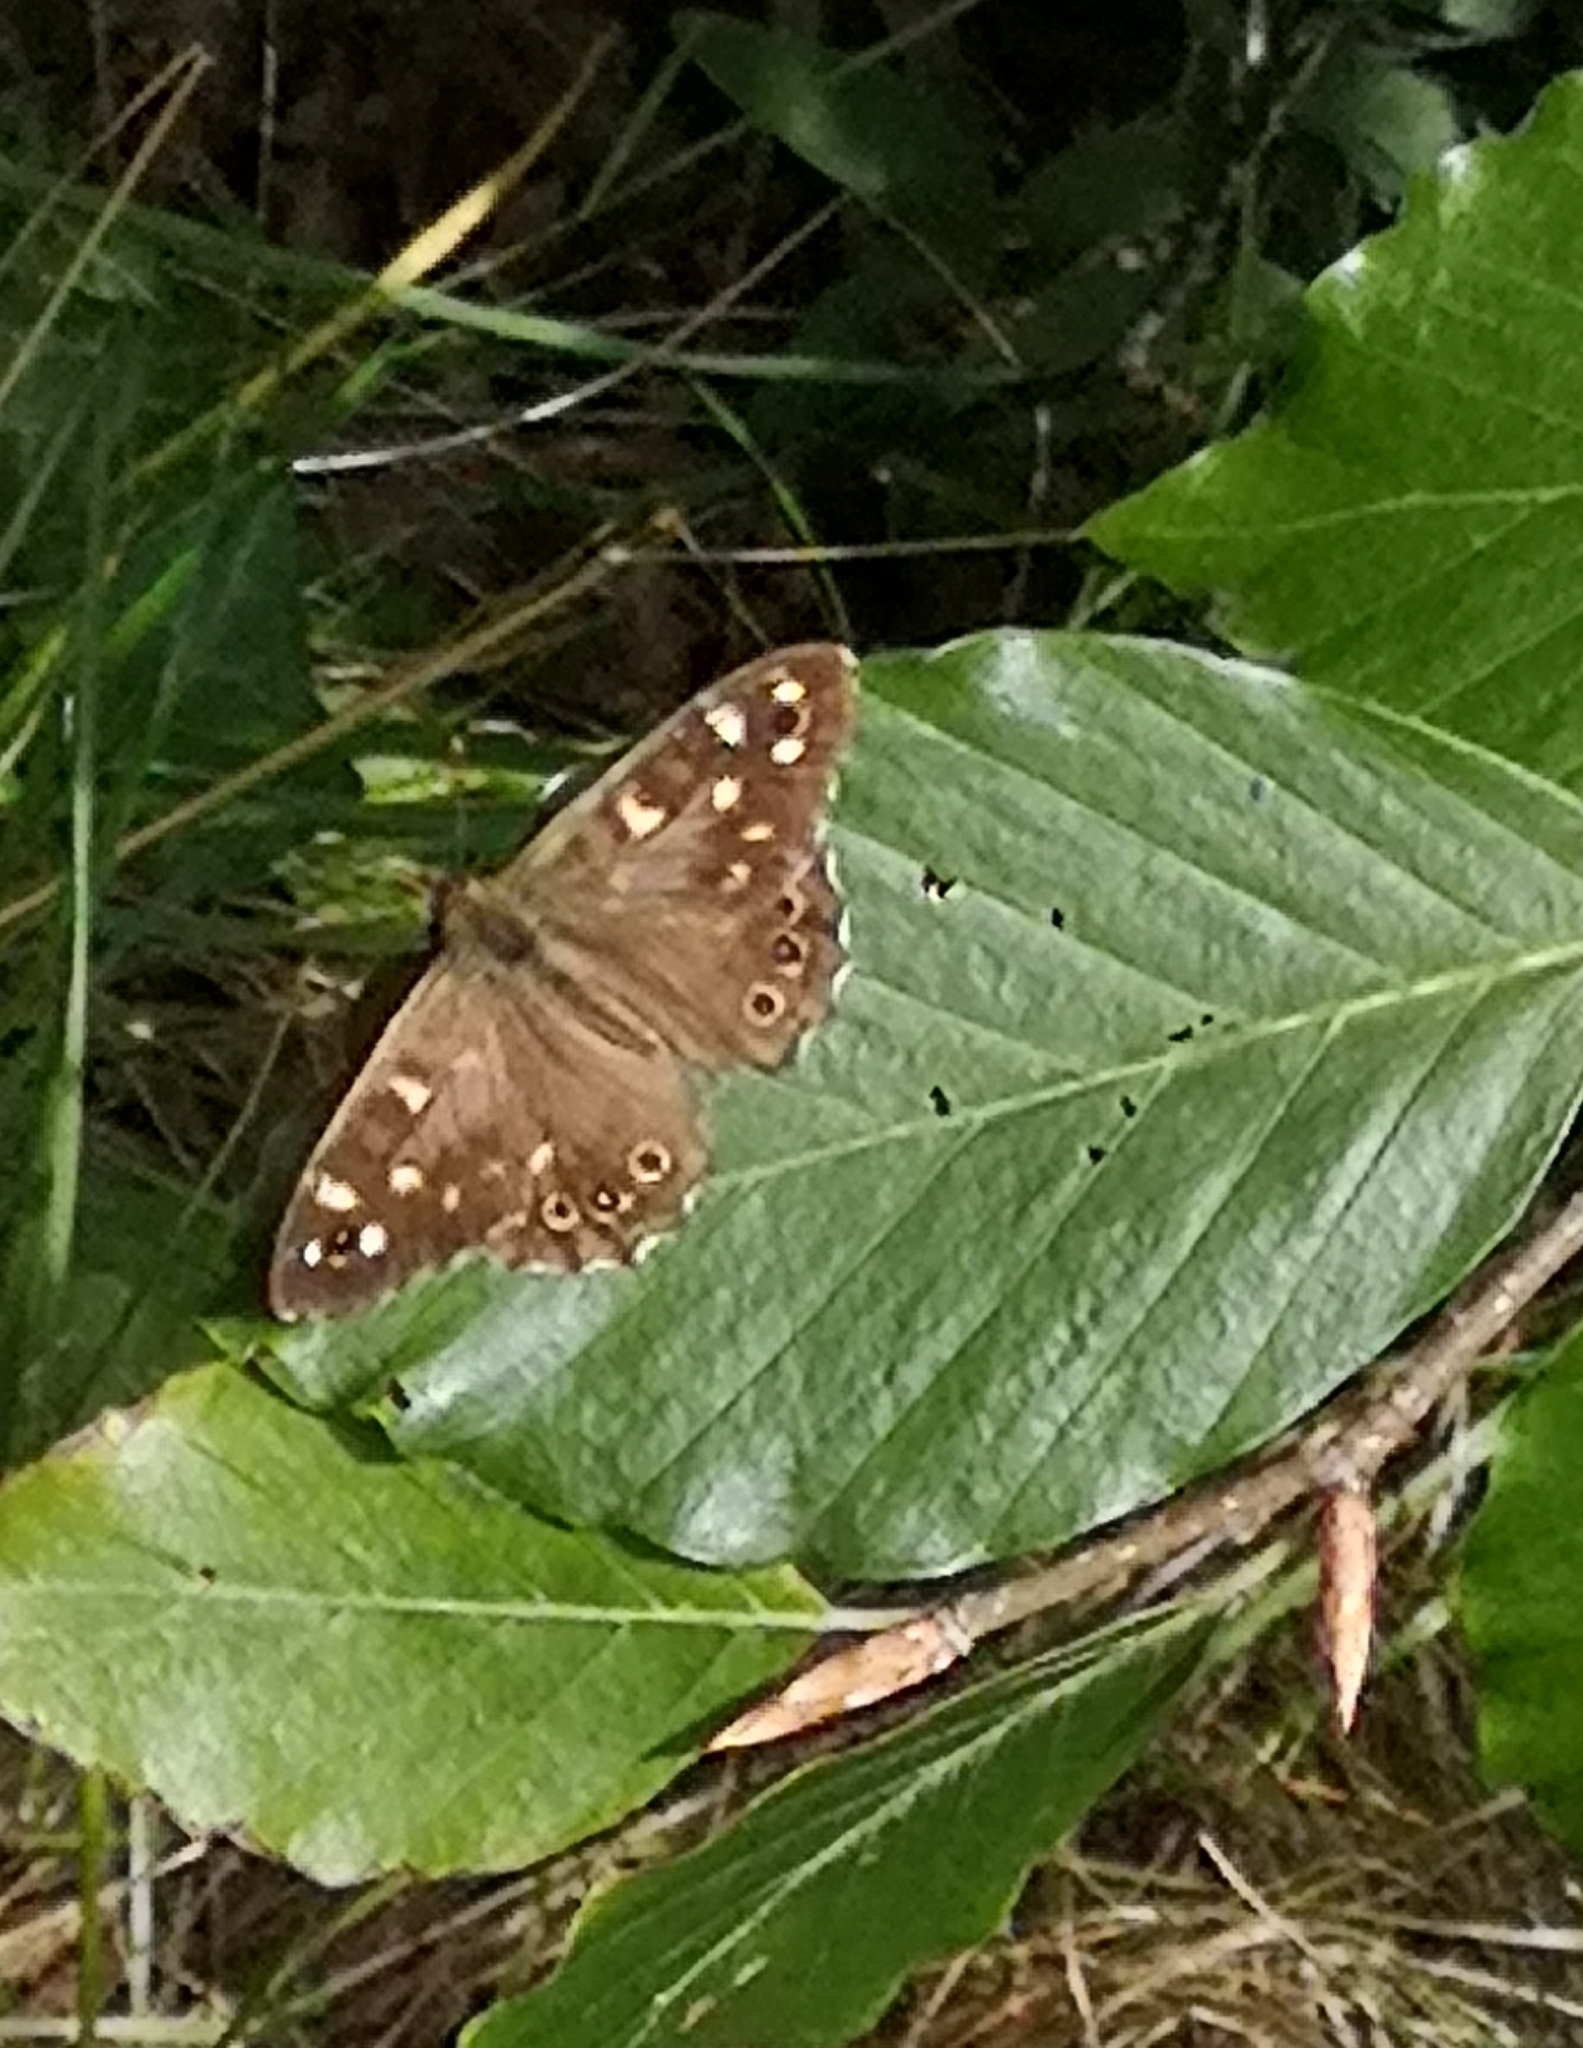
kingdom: Animalia
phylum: Arthropoda
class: Insecta
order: Lepidoptera
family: Nymphalidae
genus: Pararge
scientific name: Pararge aegeria
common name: Speckled wood
